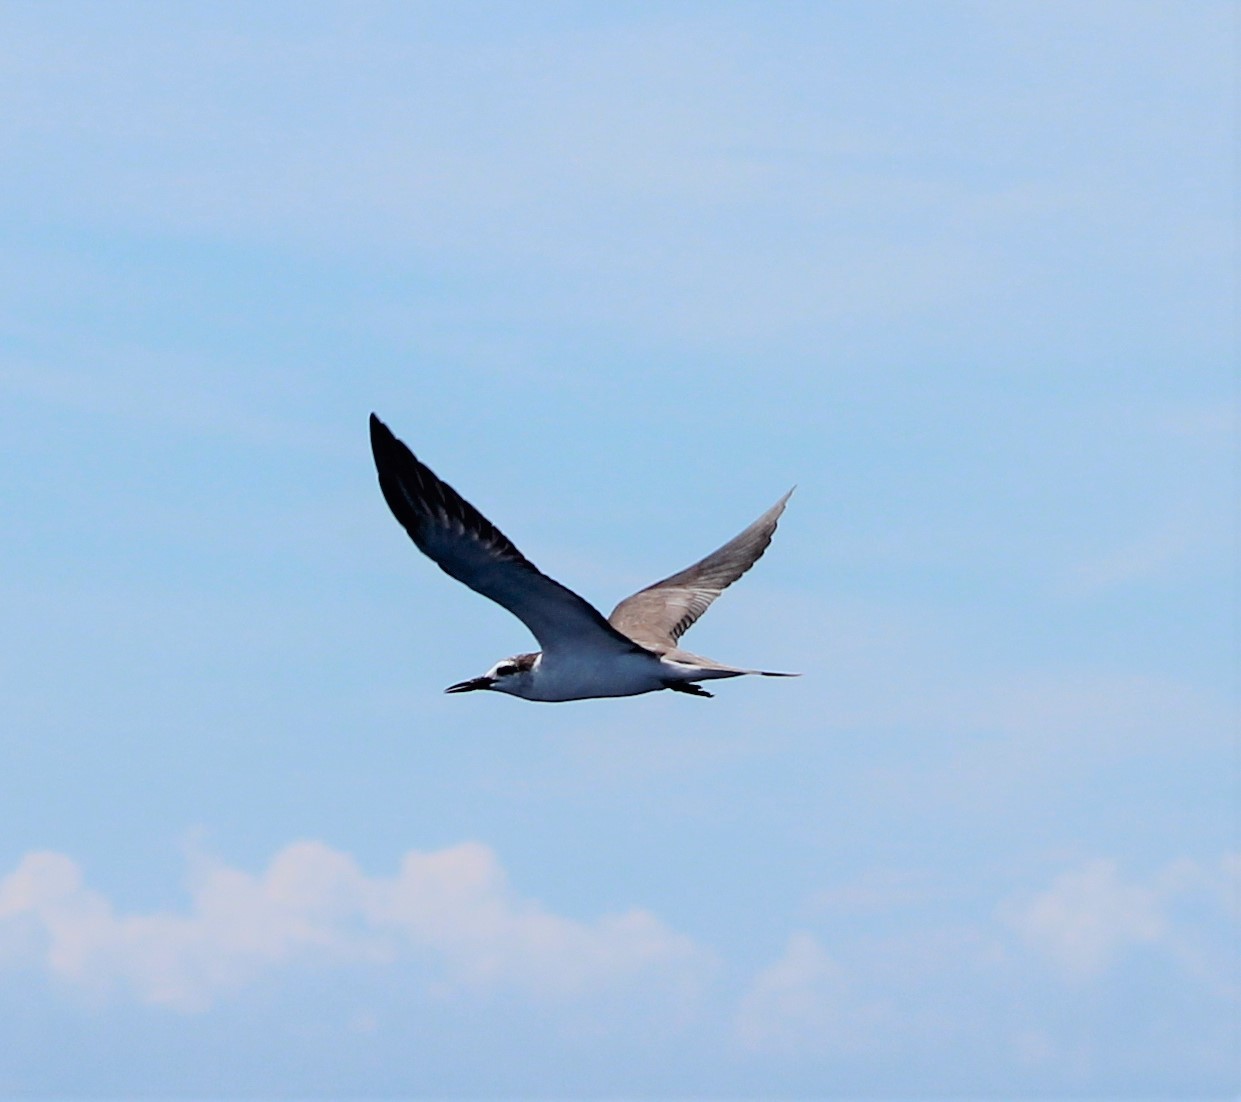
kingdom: Animalia
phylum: Chordata
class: Aves
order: Charadriiformes
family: Laridae
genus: Onychoprion
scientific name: Onychoprion anaethetus
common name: Bridled tern
